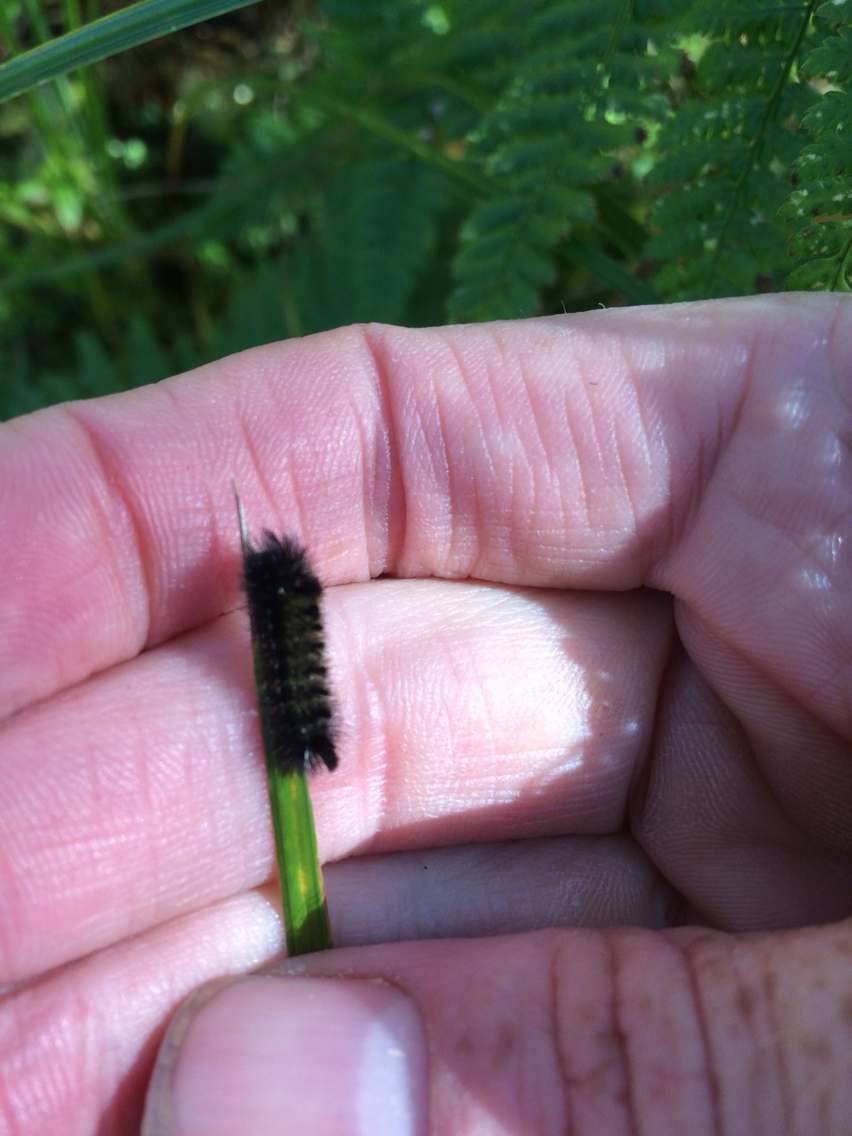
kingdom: Animalia
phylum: Arthropoda
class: Insecta
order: Lepidoptera
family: Erebidae
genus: Ctenucha
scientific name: Ctenucha virginica
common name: Virginia ctenucha moth
